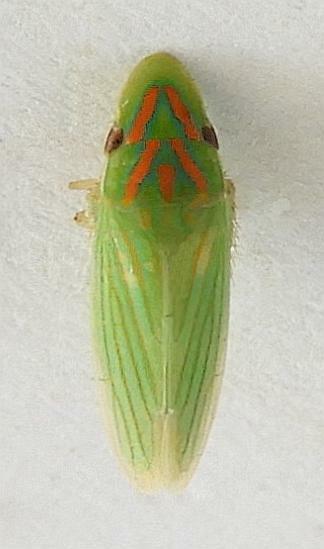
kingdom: Animalia
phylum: Arthropoda
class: Insecta
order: Hemiptera
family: Cicadellidae
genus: Spangbergiella
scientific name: Spangbergiella vulnerata
